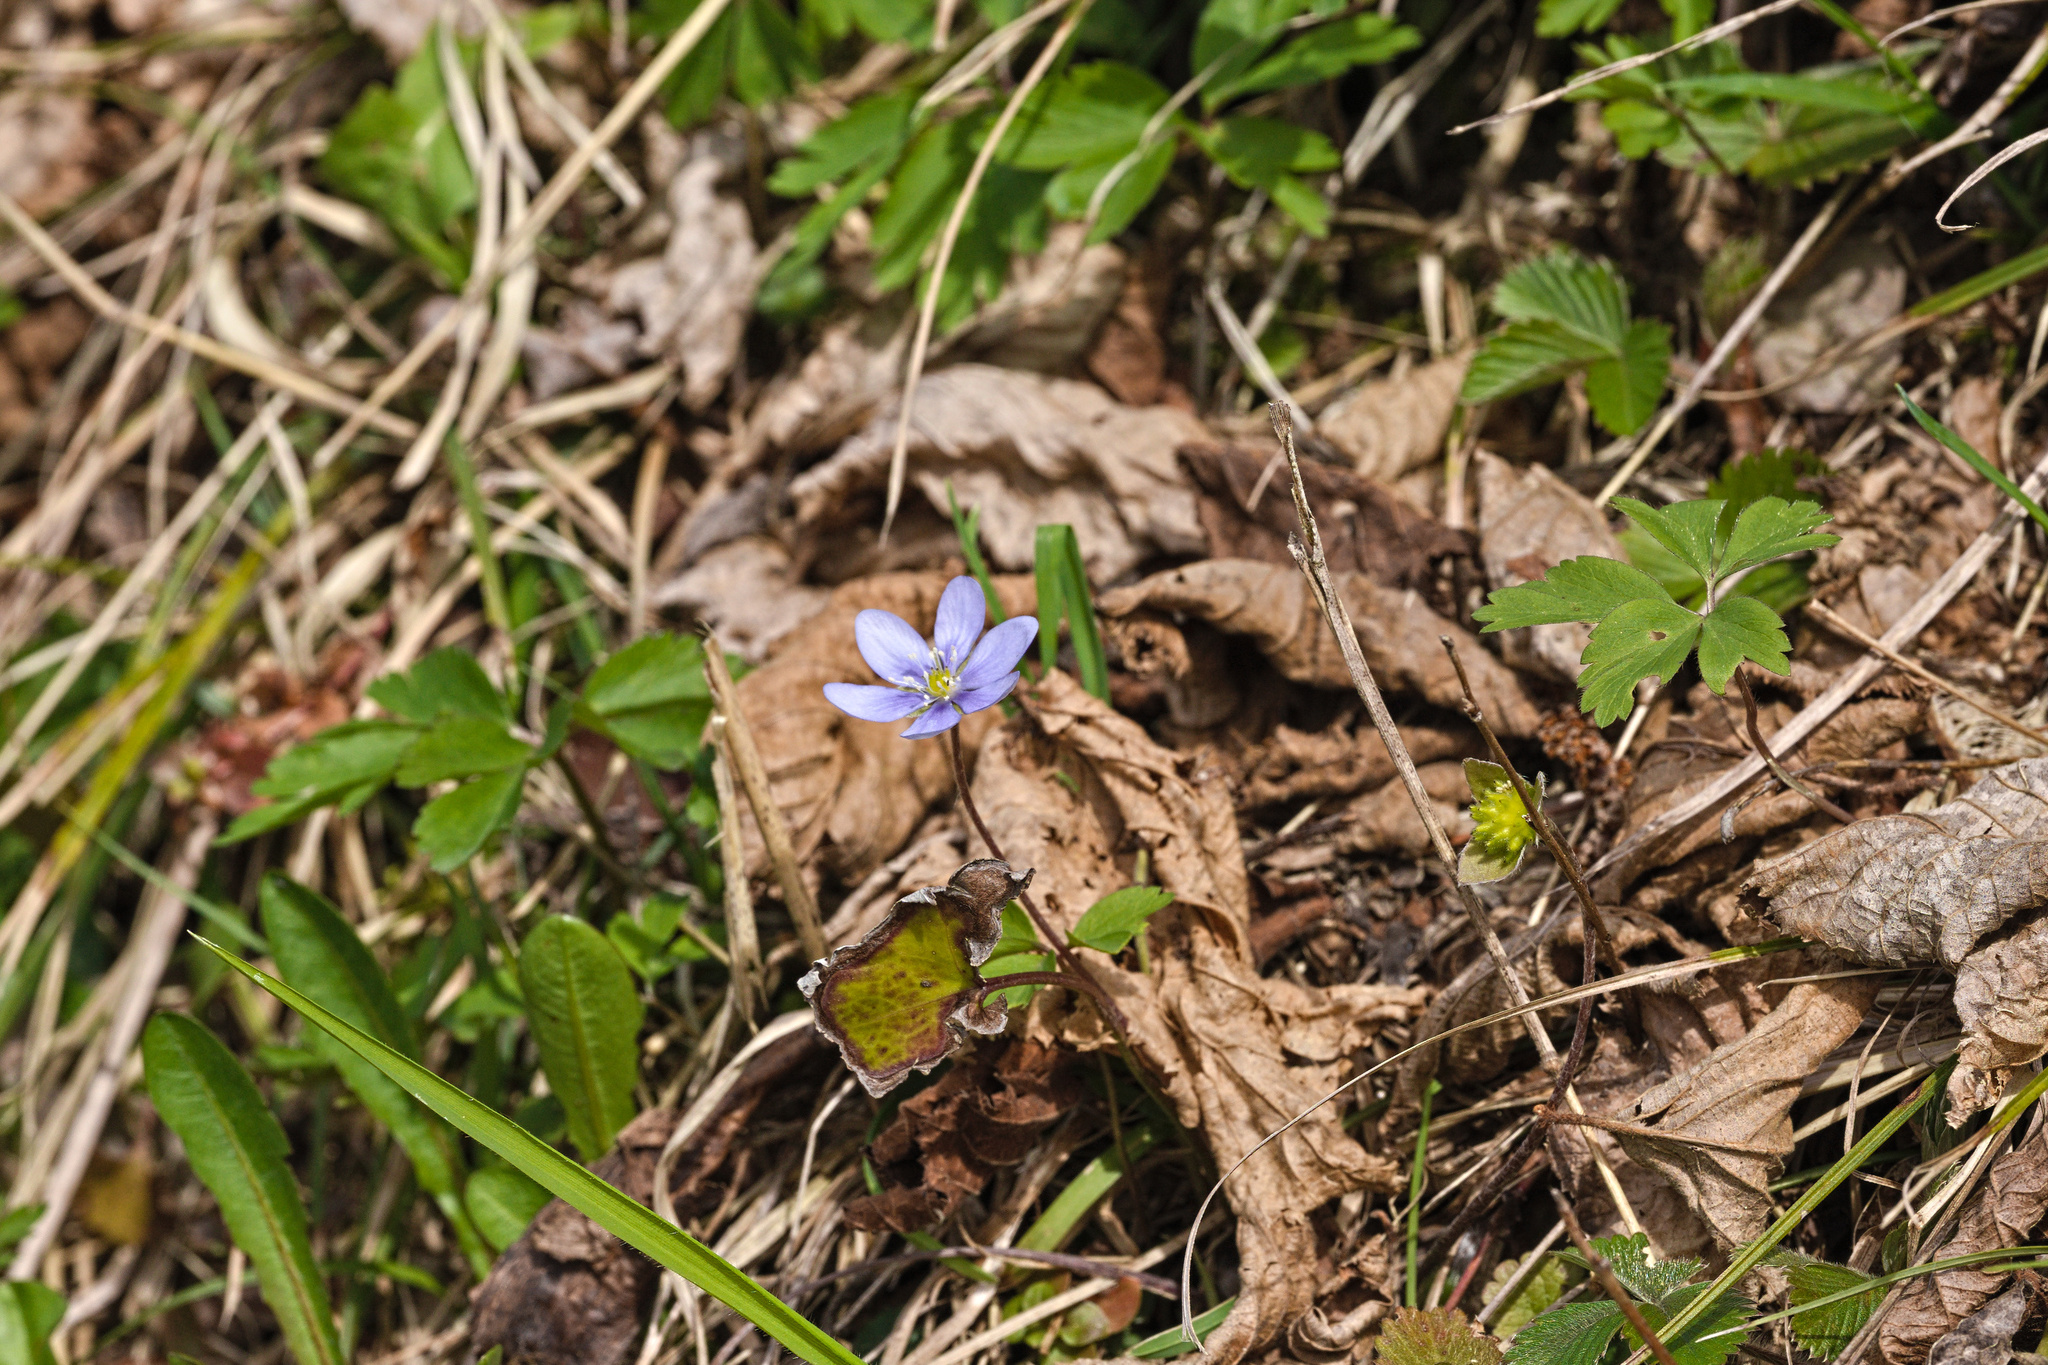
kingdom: Plantae
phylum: Tracheophyta
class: Magnoliopsida
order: Ranunculales
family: Ranunculaceae
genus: Hepatica
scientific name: Hepatica nobilis
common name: Liverleaf
